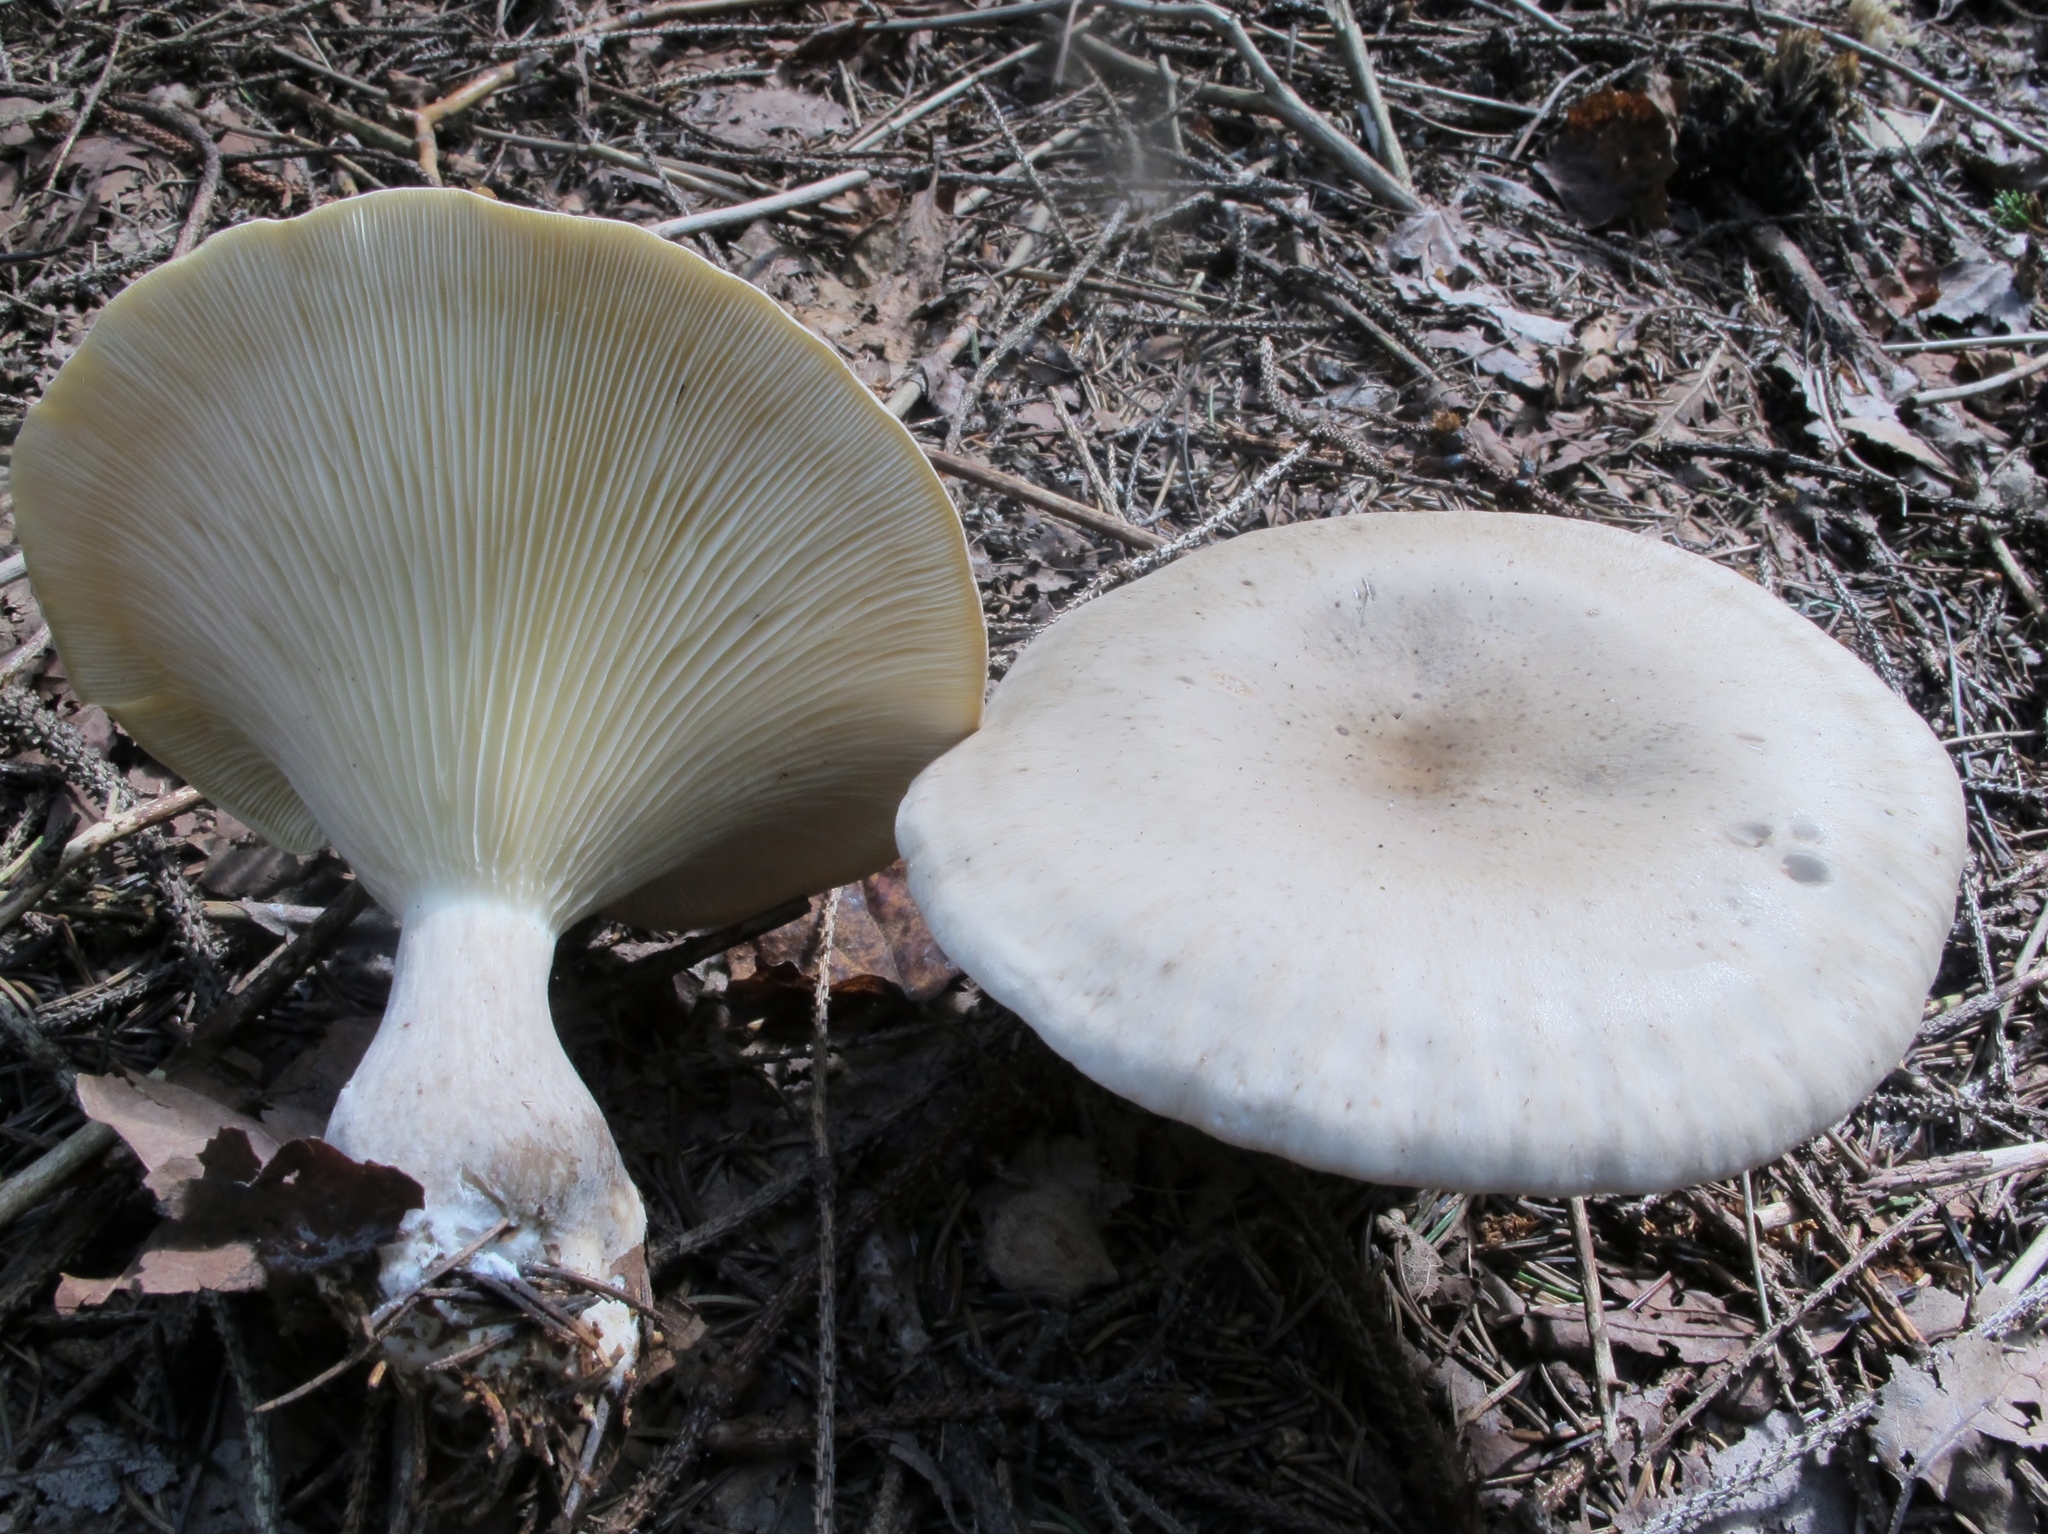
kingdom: Fungi
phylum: Basidiomycota
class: Agaricomycetes
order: Agaricales
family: Hygrophoraceae
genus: Ampulloclitocybe
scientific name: Ampulloclitocybe clavipes
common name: Club foot
